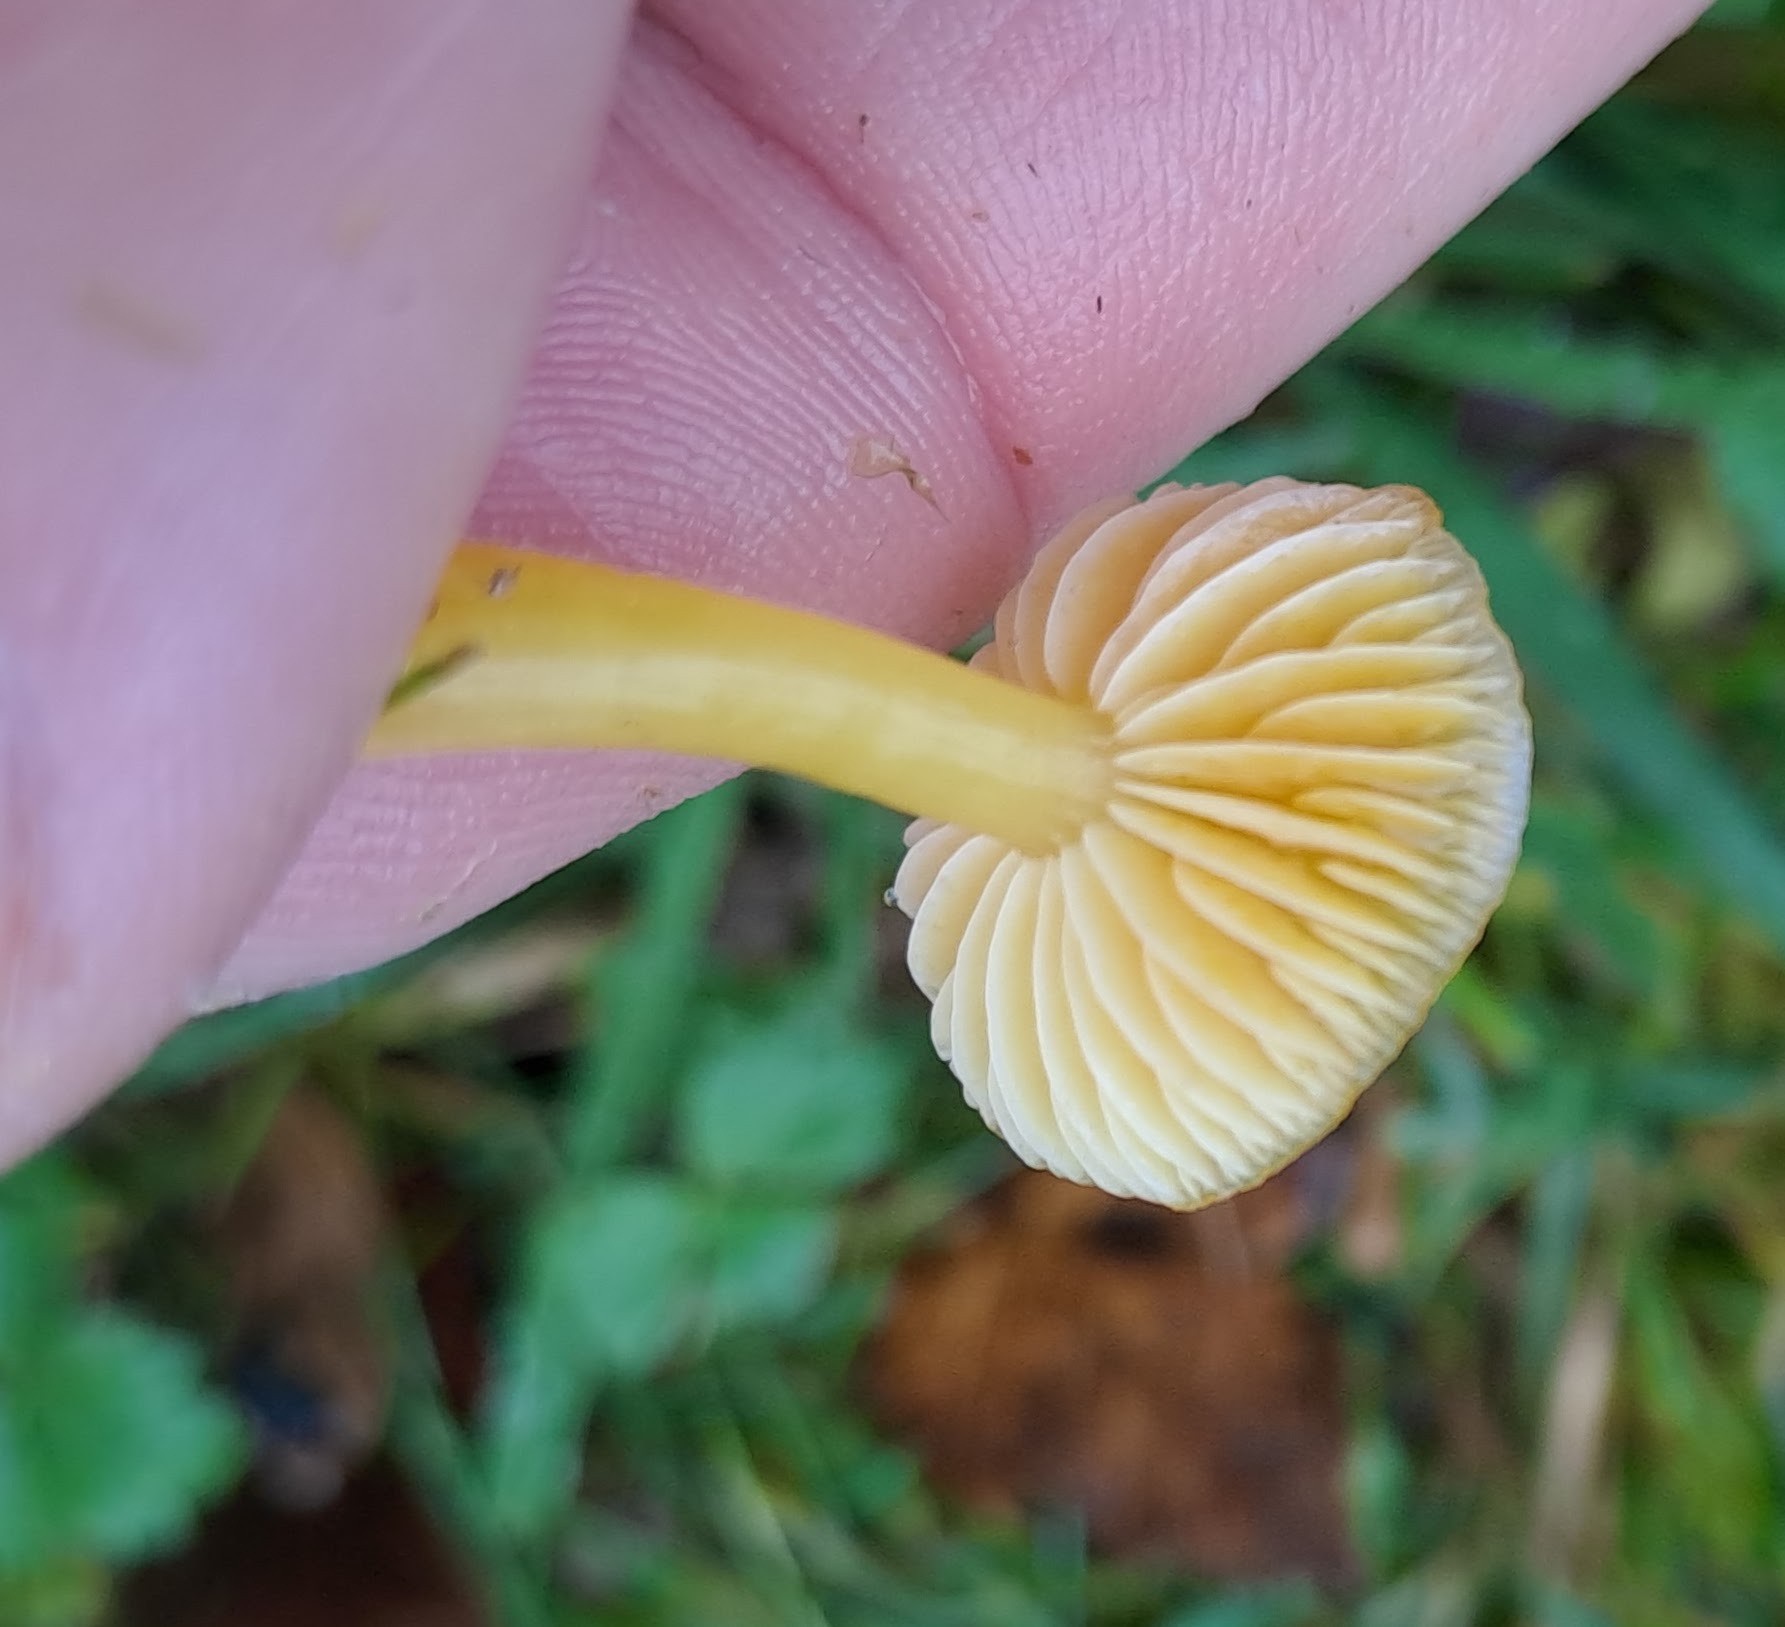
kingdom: Fungi
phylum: Basidiomycota
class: Agaricomycetes
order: Agaricales
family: Hygrophoraceae
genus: Hygrocybe
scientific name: Hygrocybe ceracea
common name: Butter waxcap
